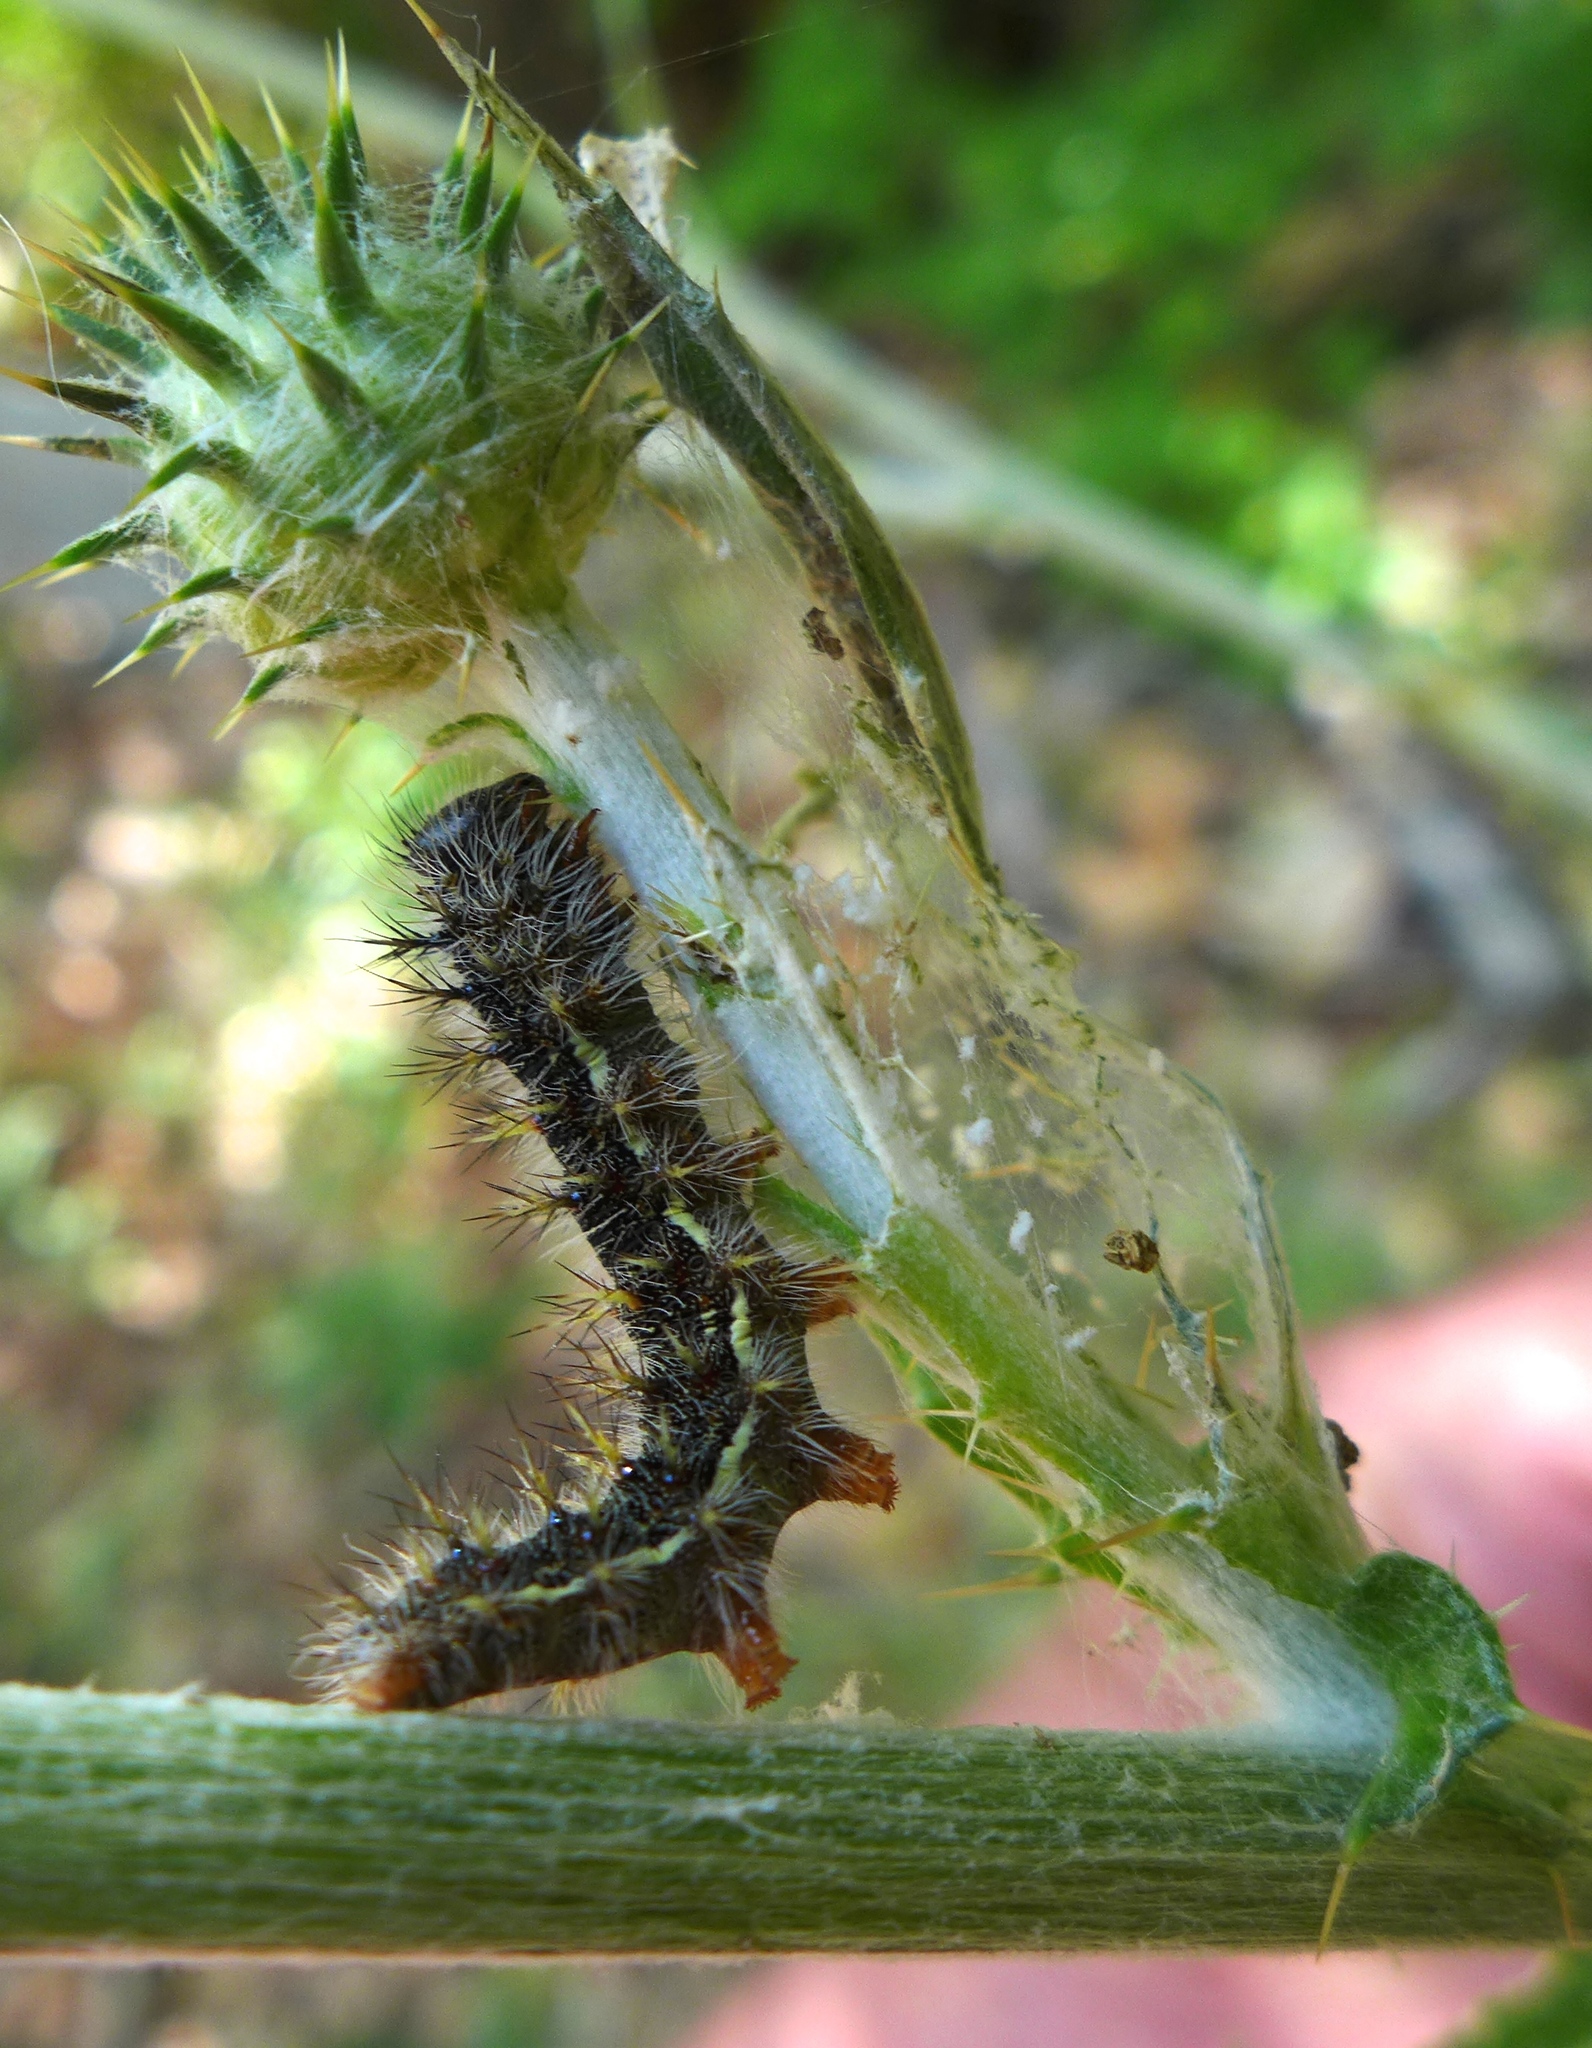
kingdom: Animalia
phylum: Arthropoda
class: Insecta
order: Lepidoptera
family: Nymphalidae
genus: Vanessa
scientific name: Vanessa cardui
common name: Painted lady
